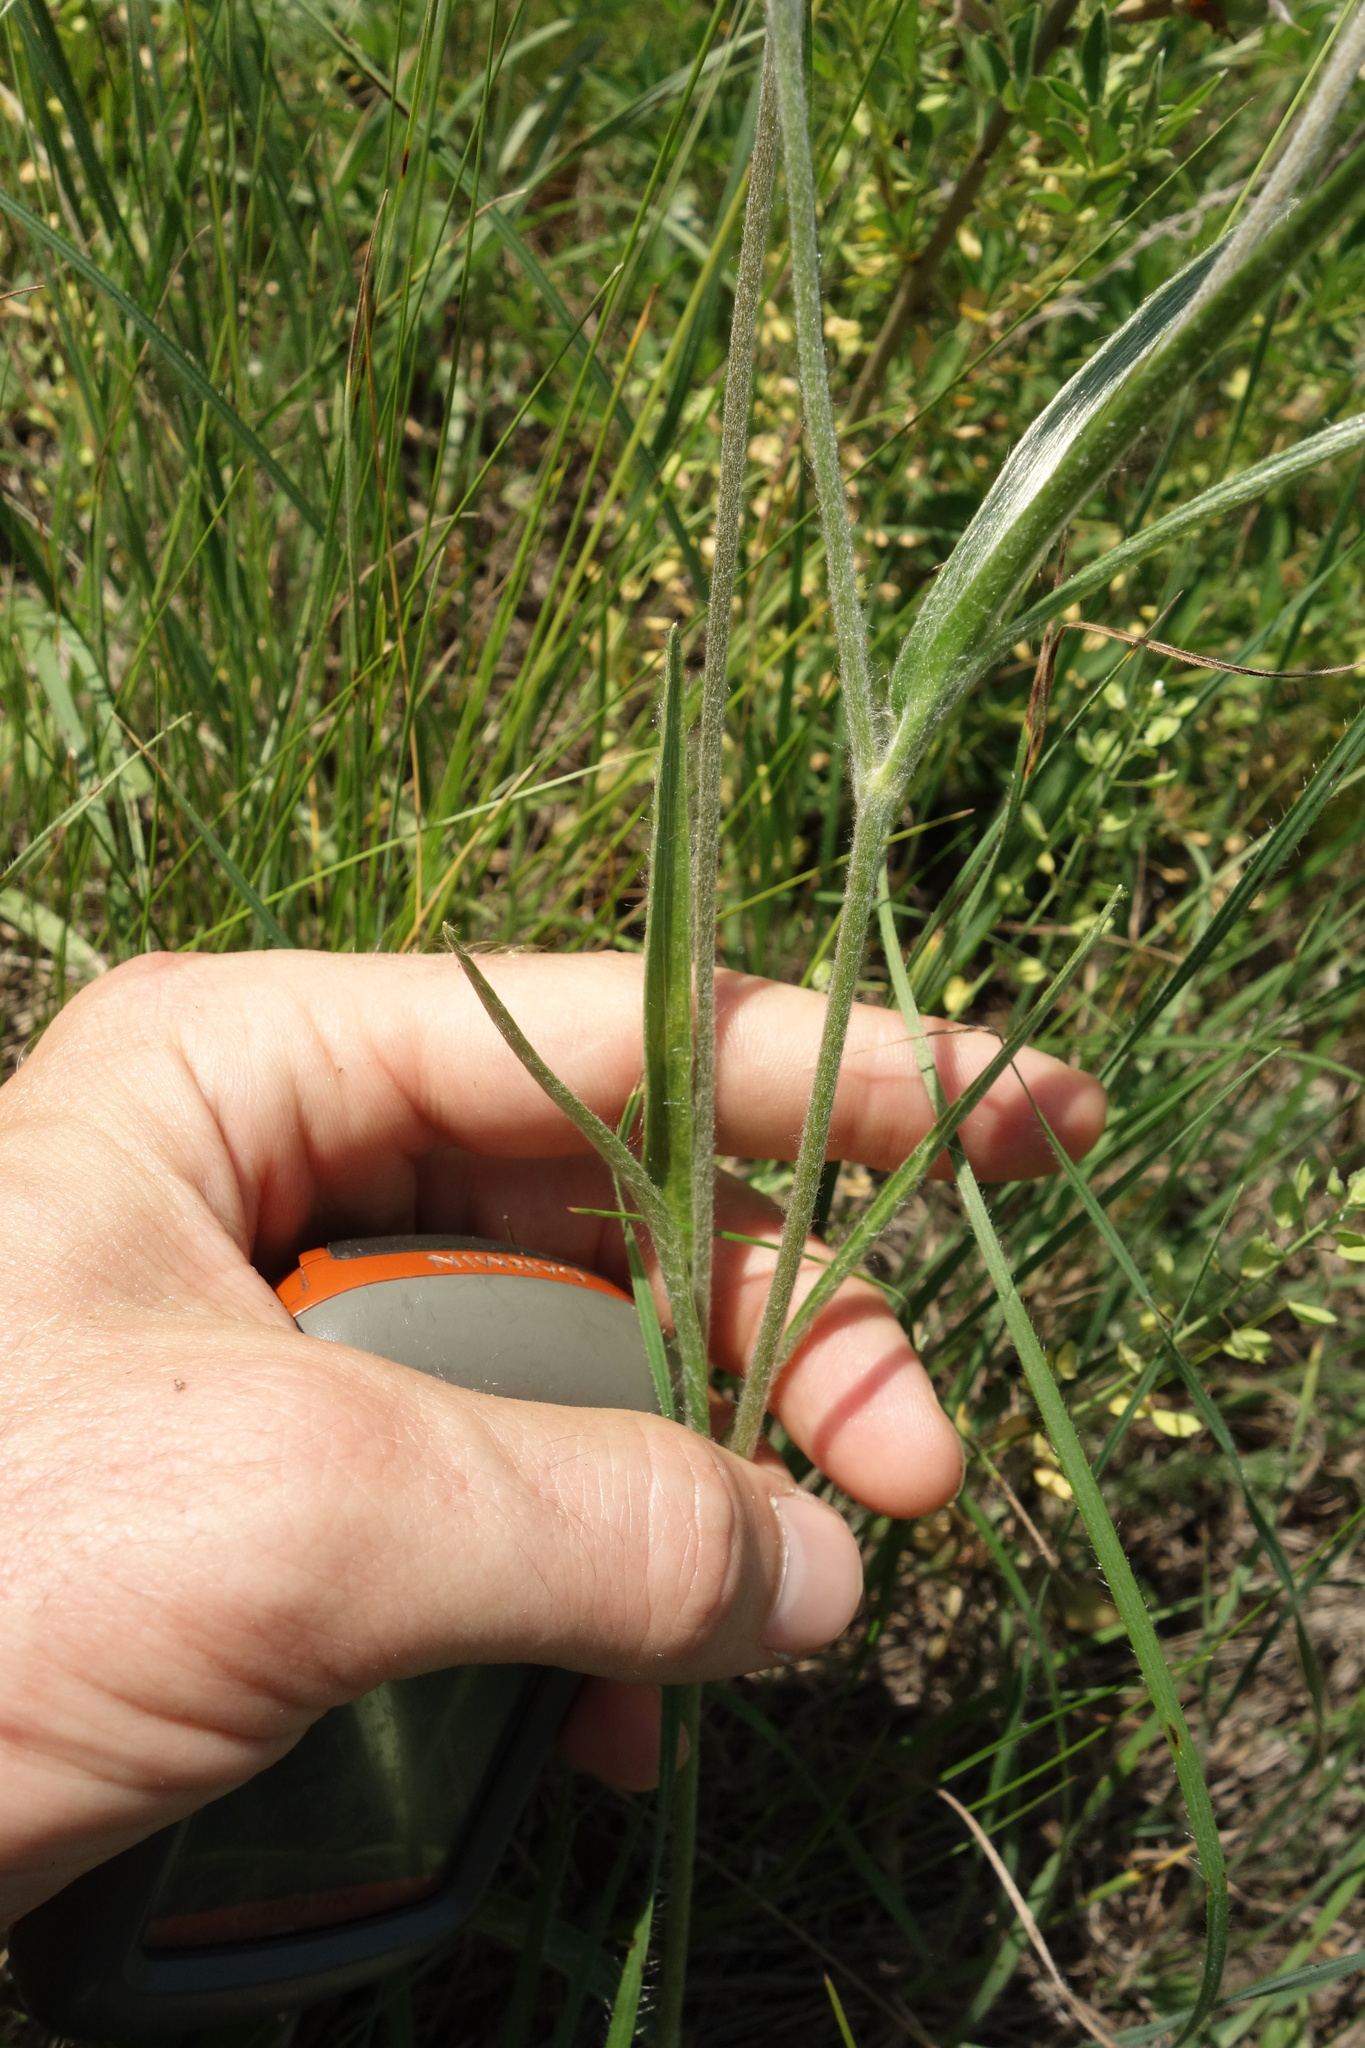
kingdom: Plantae
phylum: Tracheophyta
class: Magnoliopsida
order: Ranunculales
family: Ranunculaceae
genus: Ranunculus
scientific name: Ranunculus illyricus
